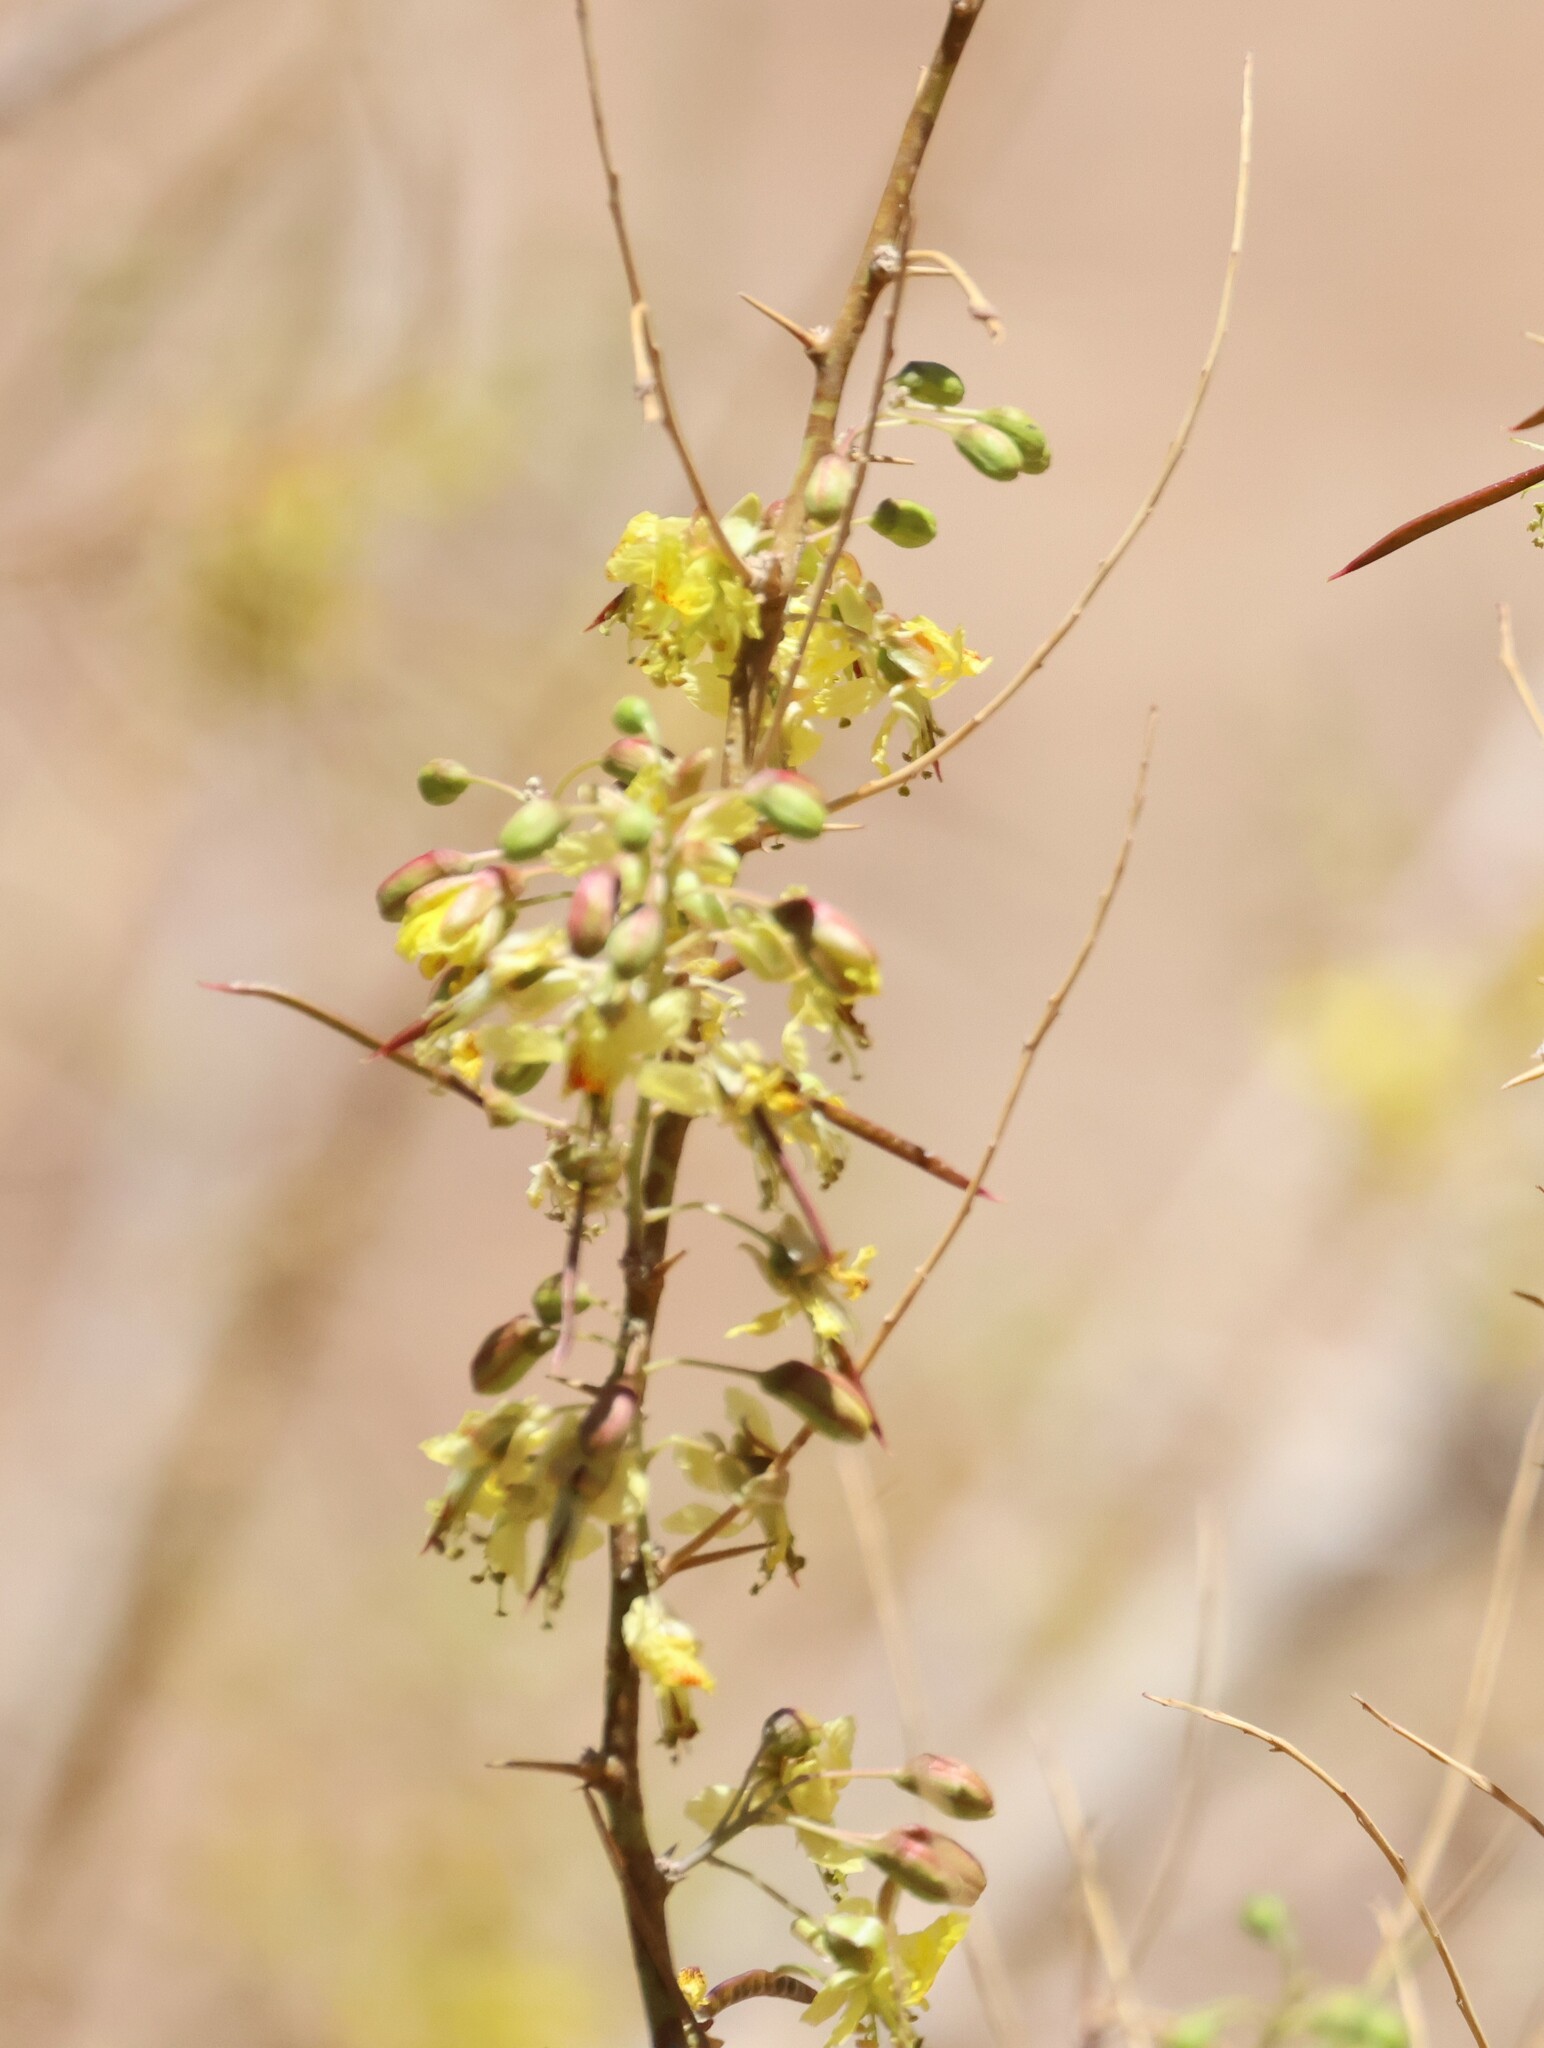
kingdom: Plantae
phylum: Tracheophyta
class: Magnoliopsida
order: Fabales
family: Fabaceae
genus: Parkinsonia
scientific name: Parkinsonia africana
